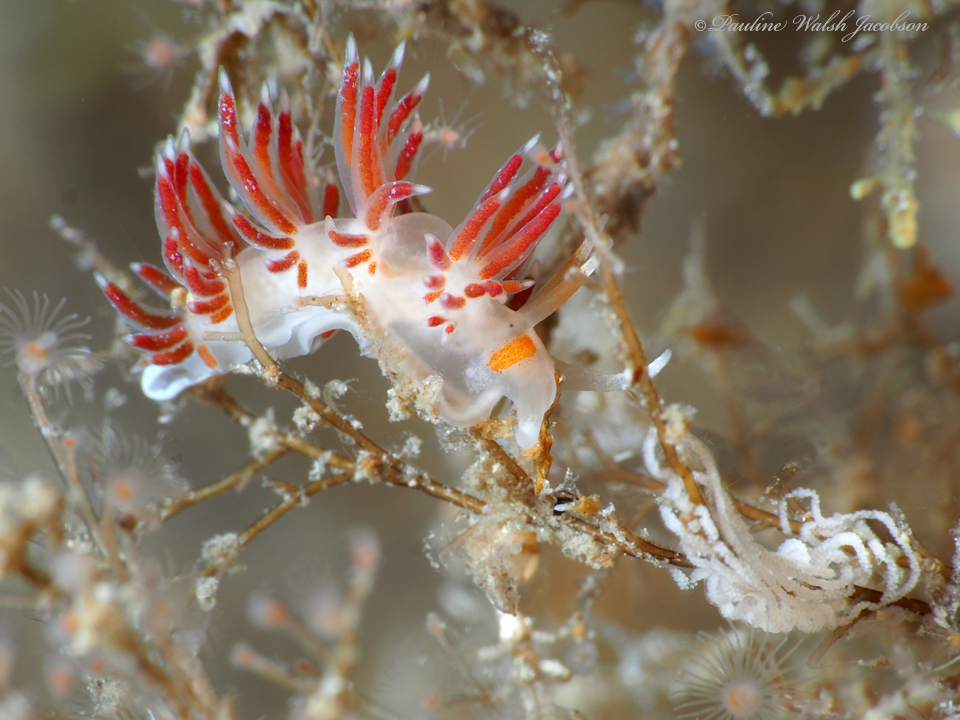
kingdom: Animalia
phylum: Mollusca
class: Gastropoda
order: Nudibranchia
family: Facelinidae
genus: Cratena
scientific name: Cratena minor
